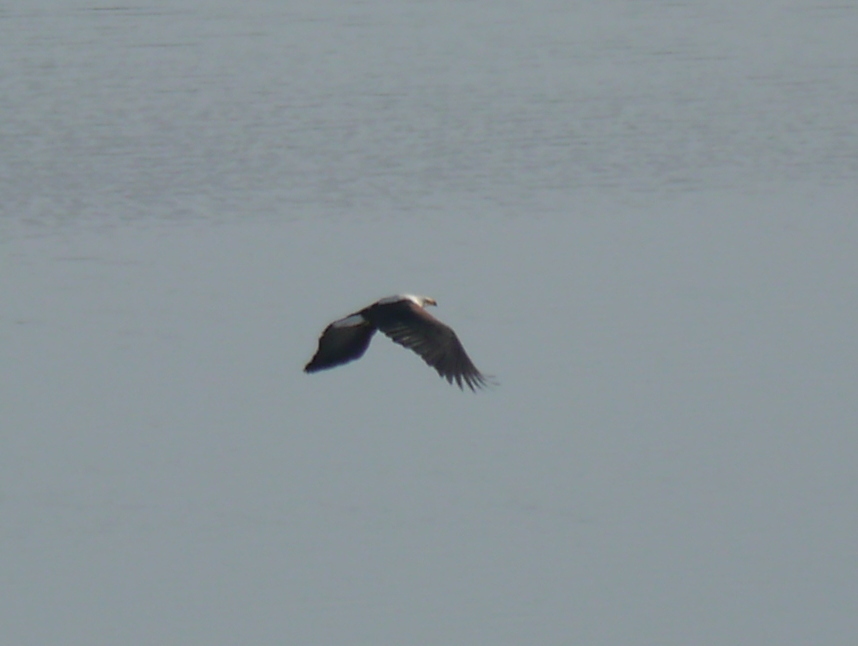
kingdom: Animalia
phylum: Chordata
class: Aves
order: Accipitriformes
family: Accipitridae
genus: Haliaeetus
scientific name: Haliaeetus vocifer
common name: African fish eagle
